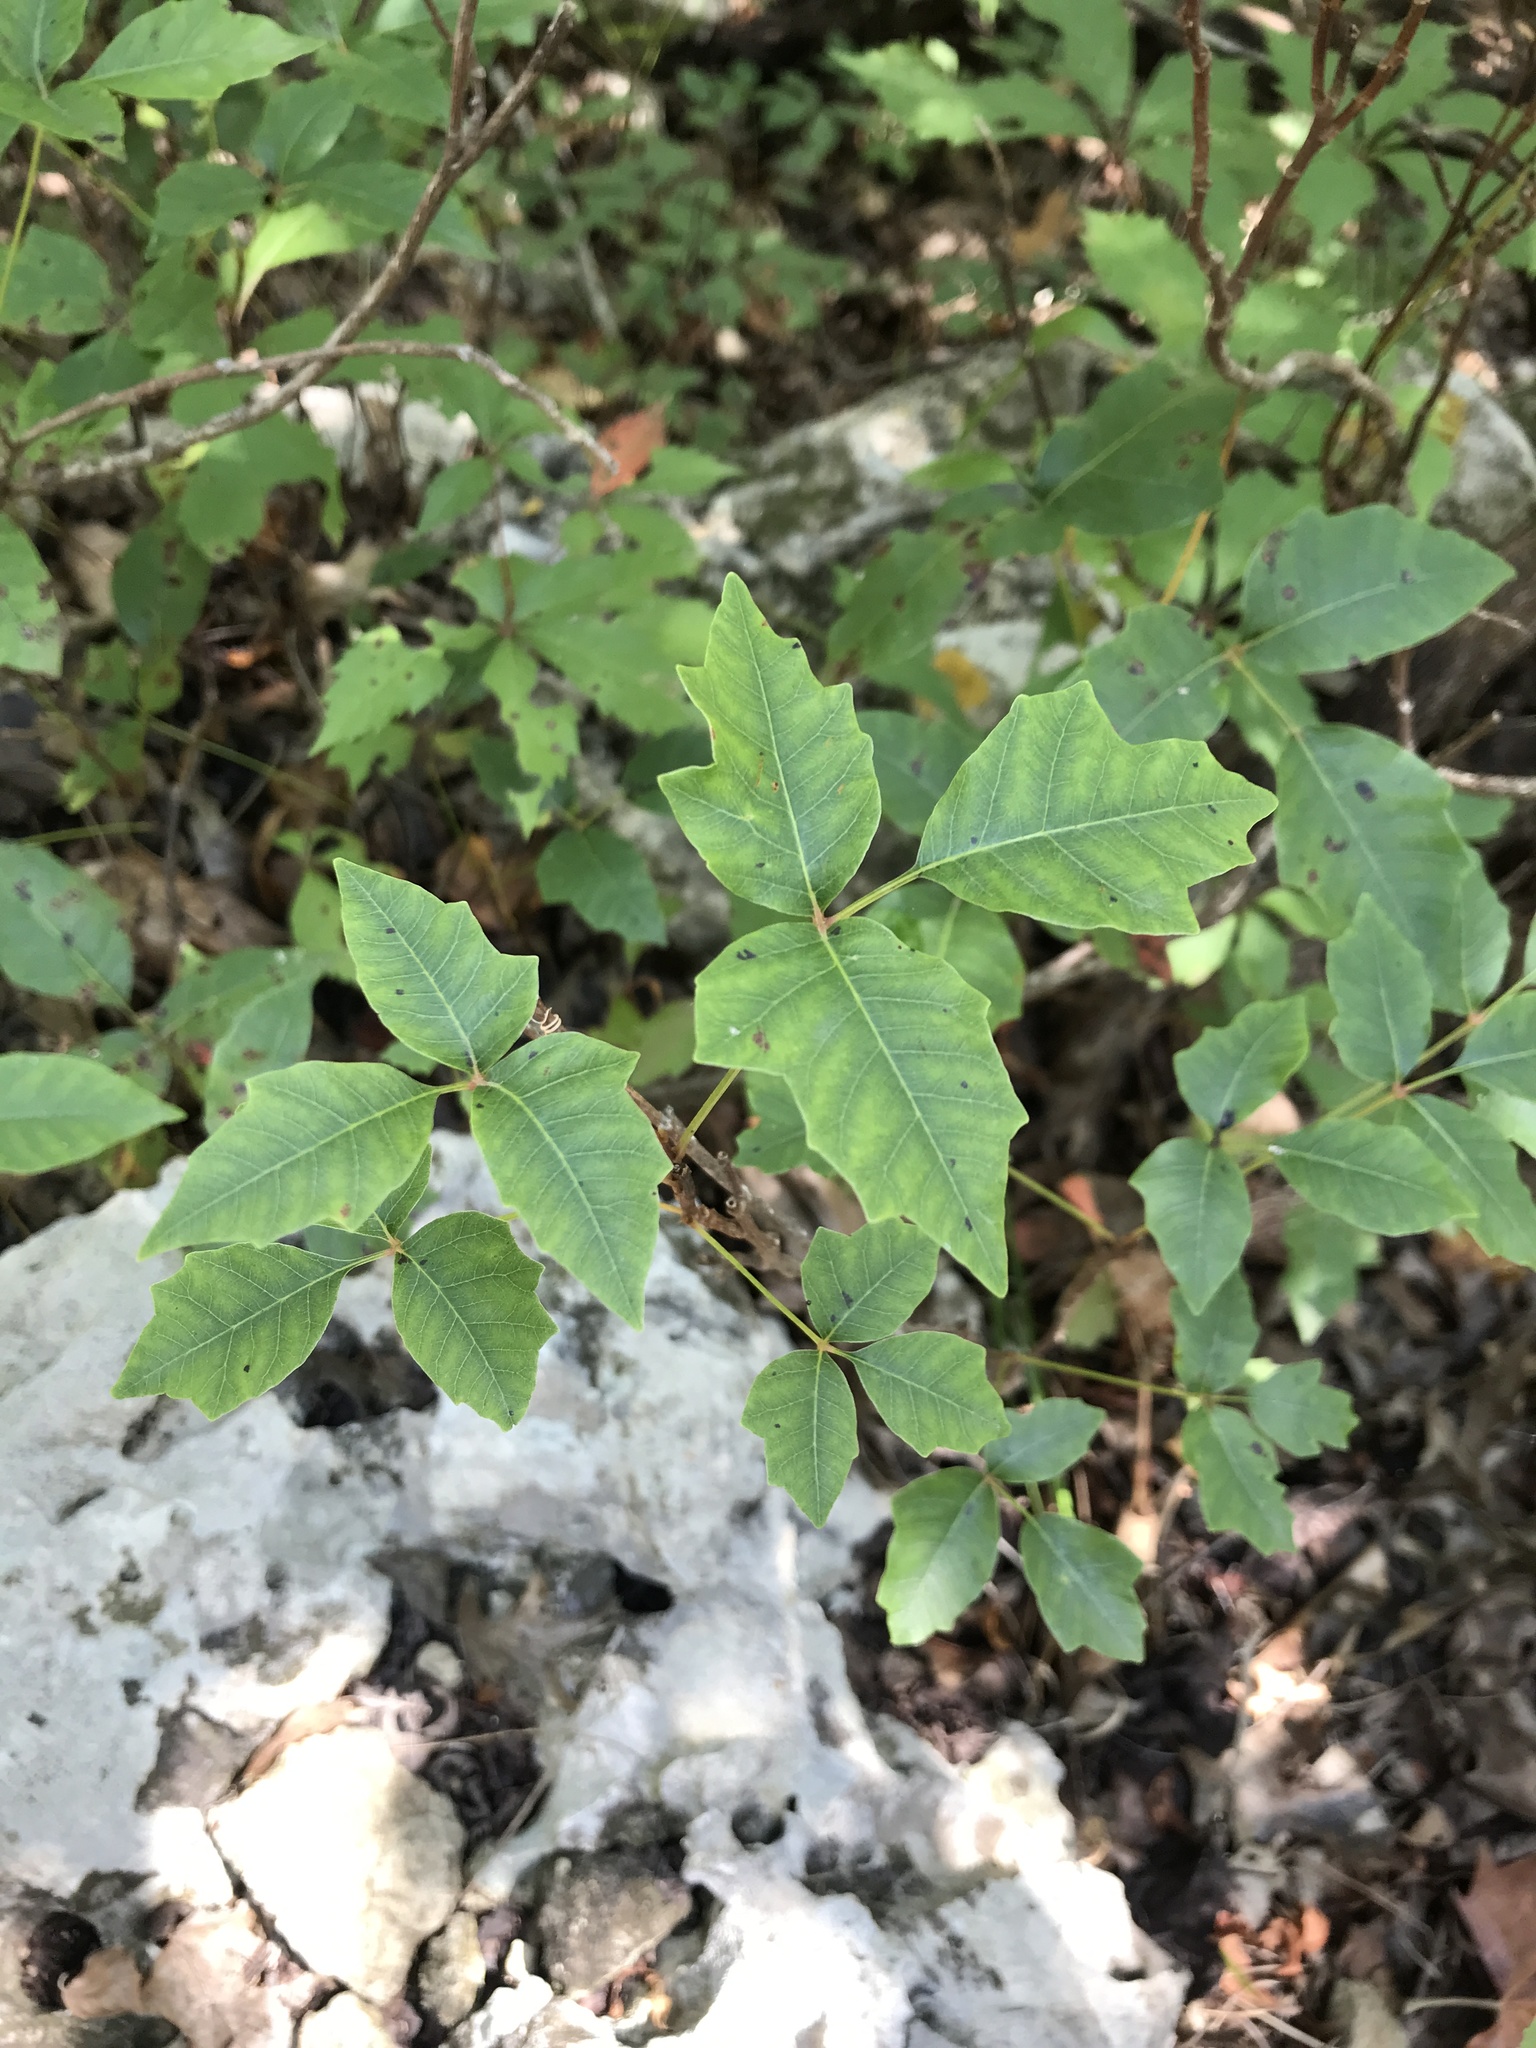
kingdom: Plantae
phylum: Tracheophyta
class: Magnoliopsida
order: Sapindales
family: Anacardiaceae
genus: Toxicodendron
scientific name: Toxicodendron radicans
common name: Poison ivy
